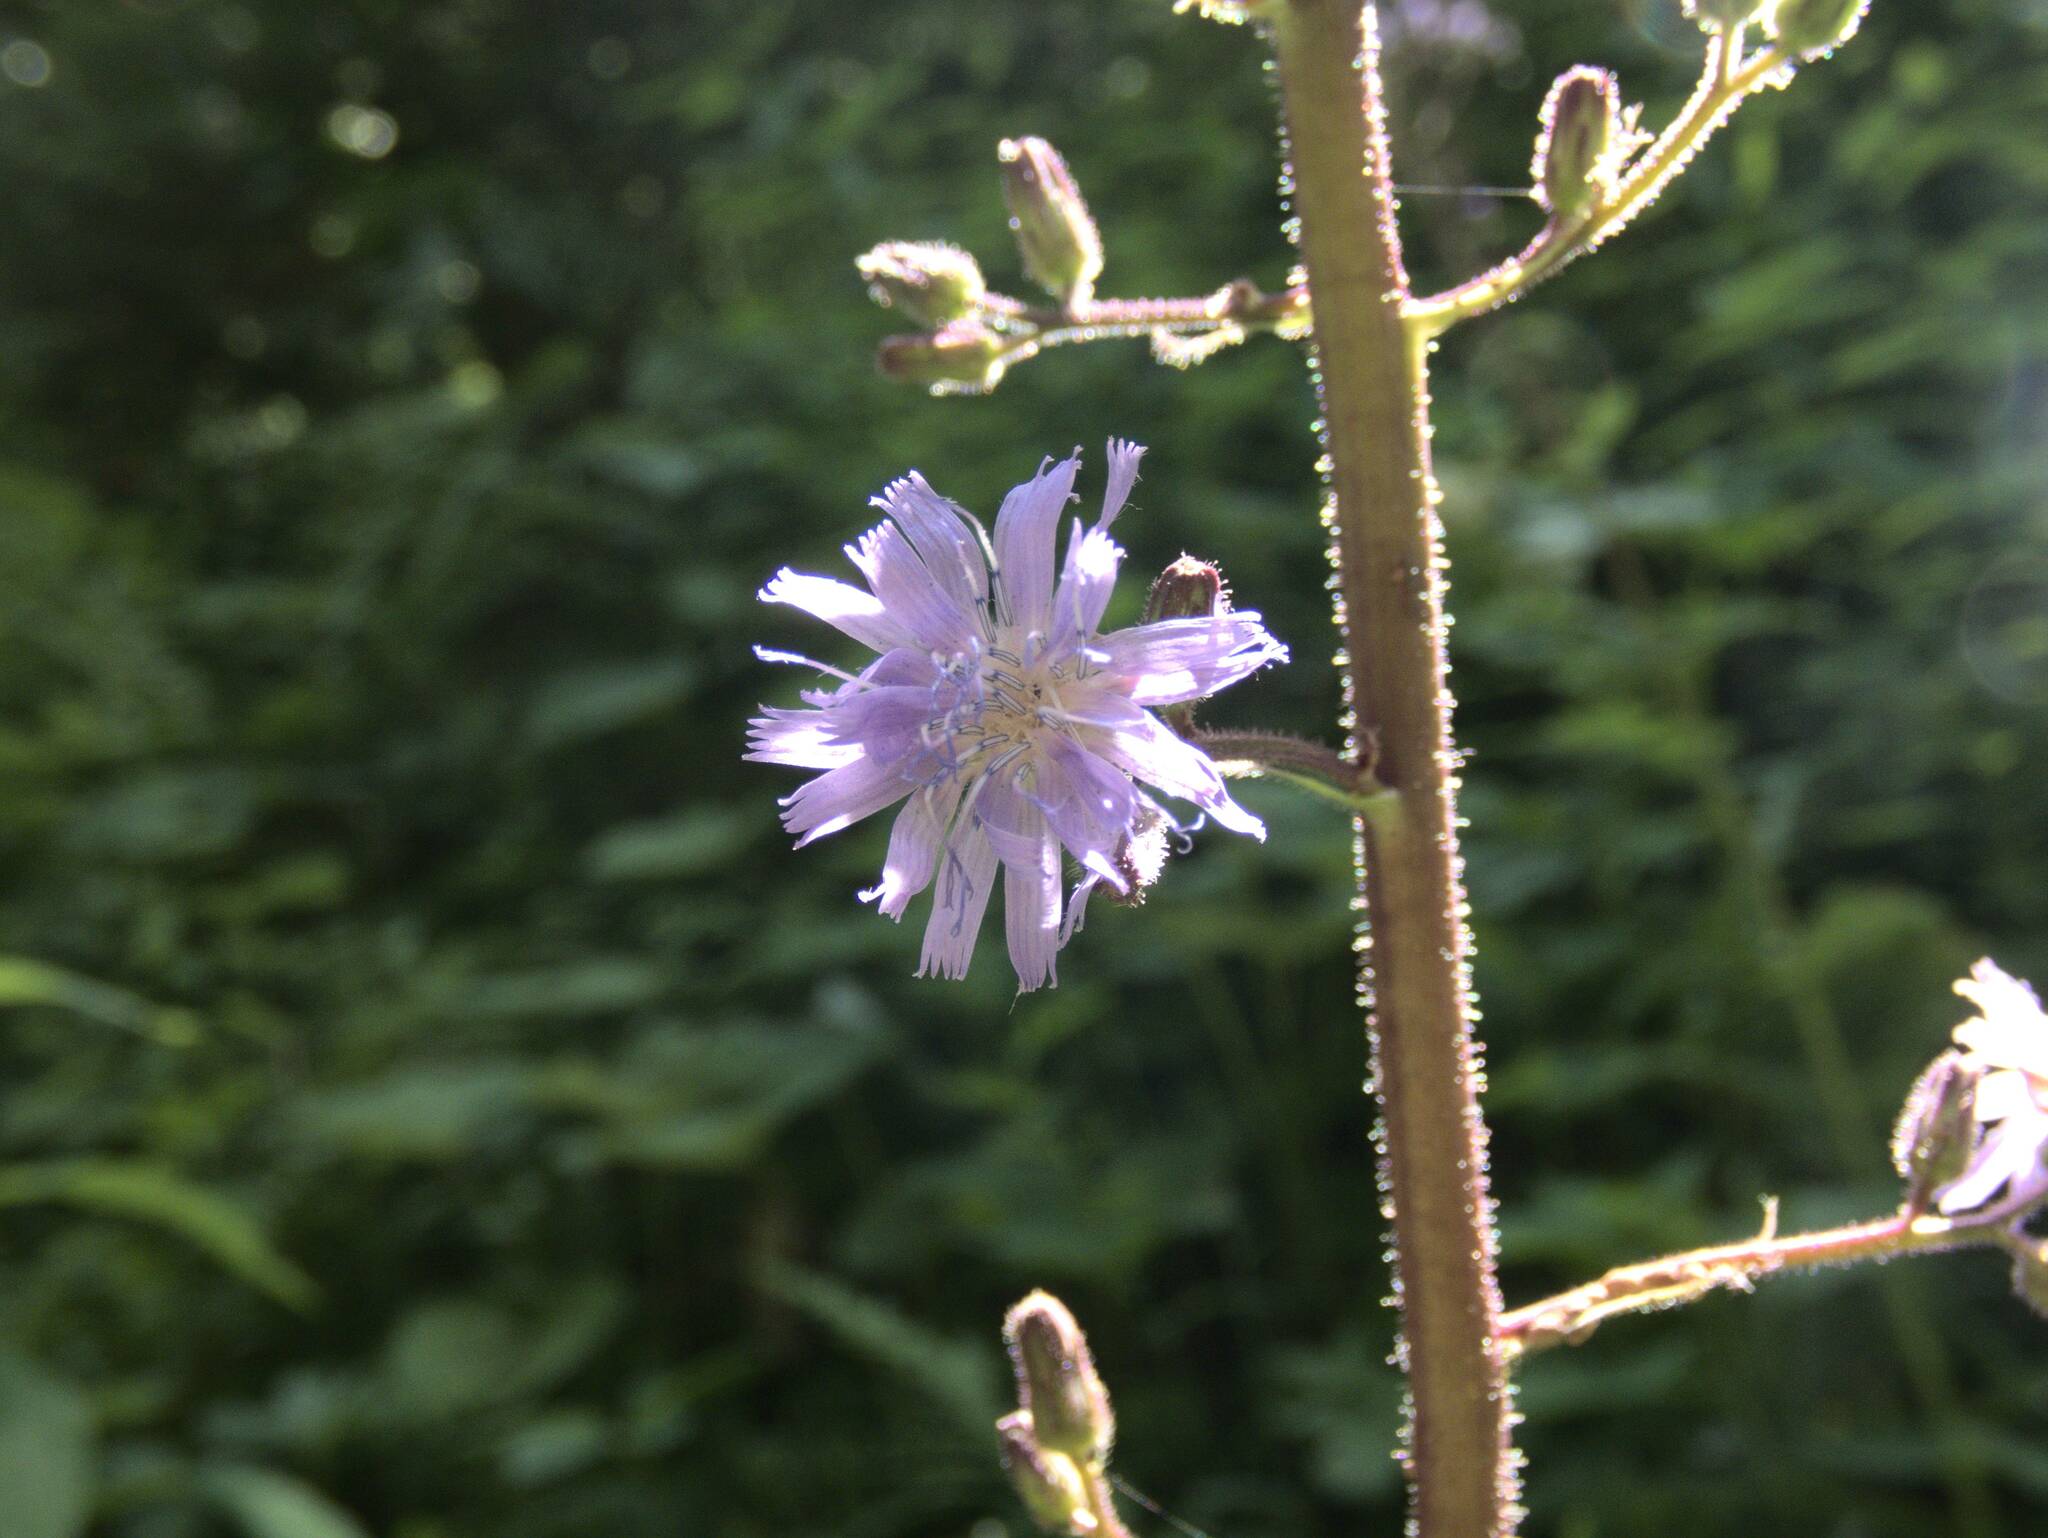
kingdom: Plantae
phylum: Tracheophyta
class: Magnoliopsida
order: Asterales
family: Asteraceae
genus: Cicerbita
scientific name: Cicerbita alpina
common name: Alpine blue-sow-thistle
